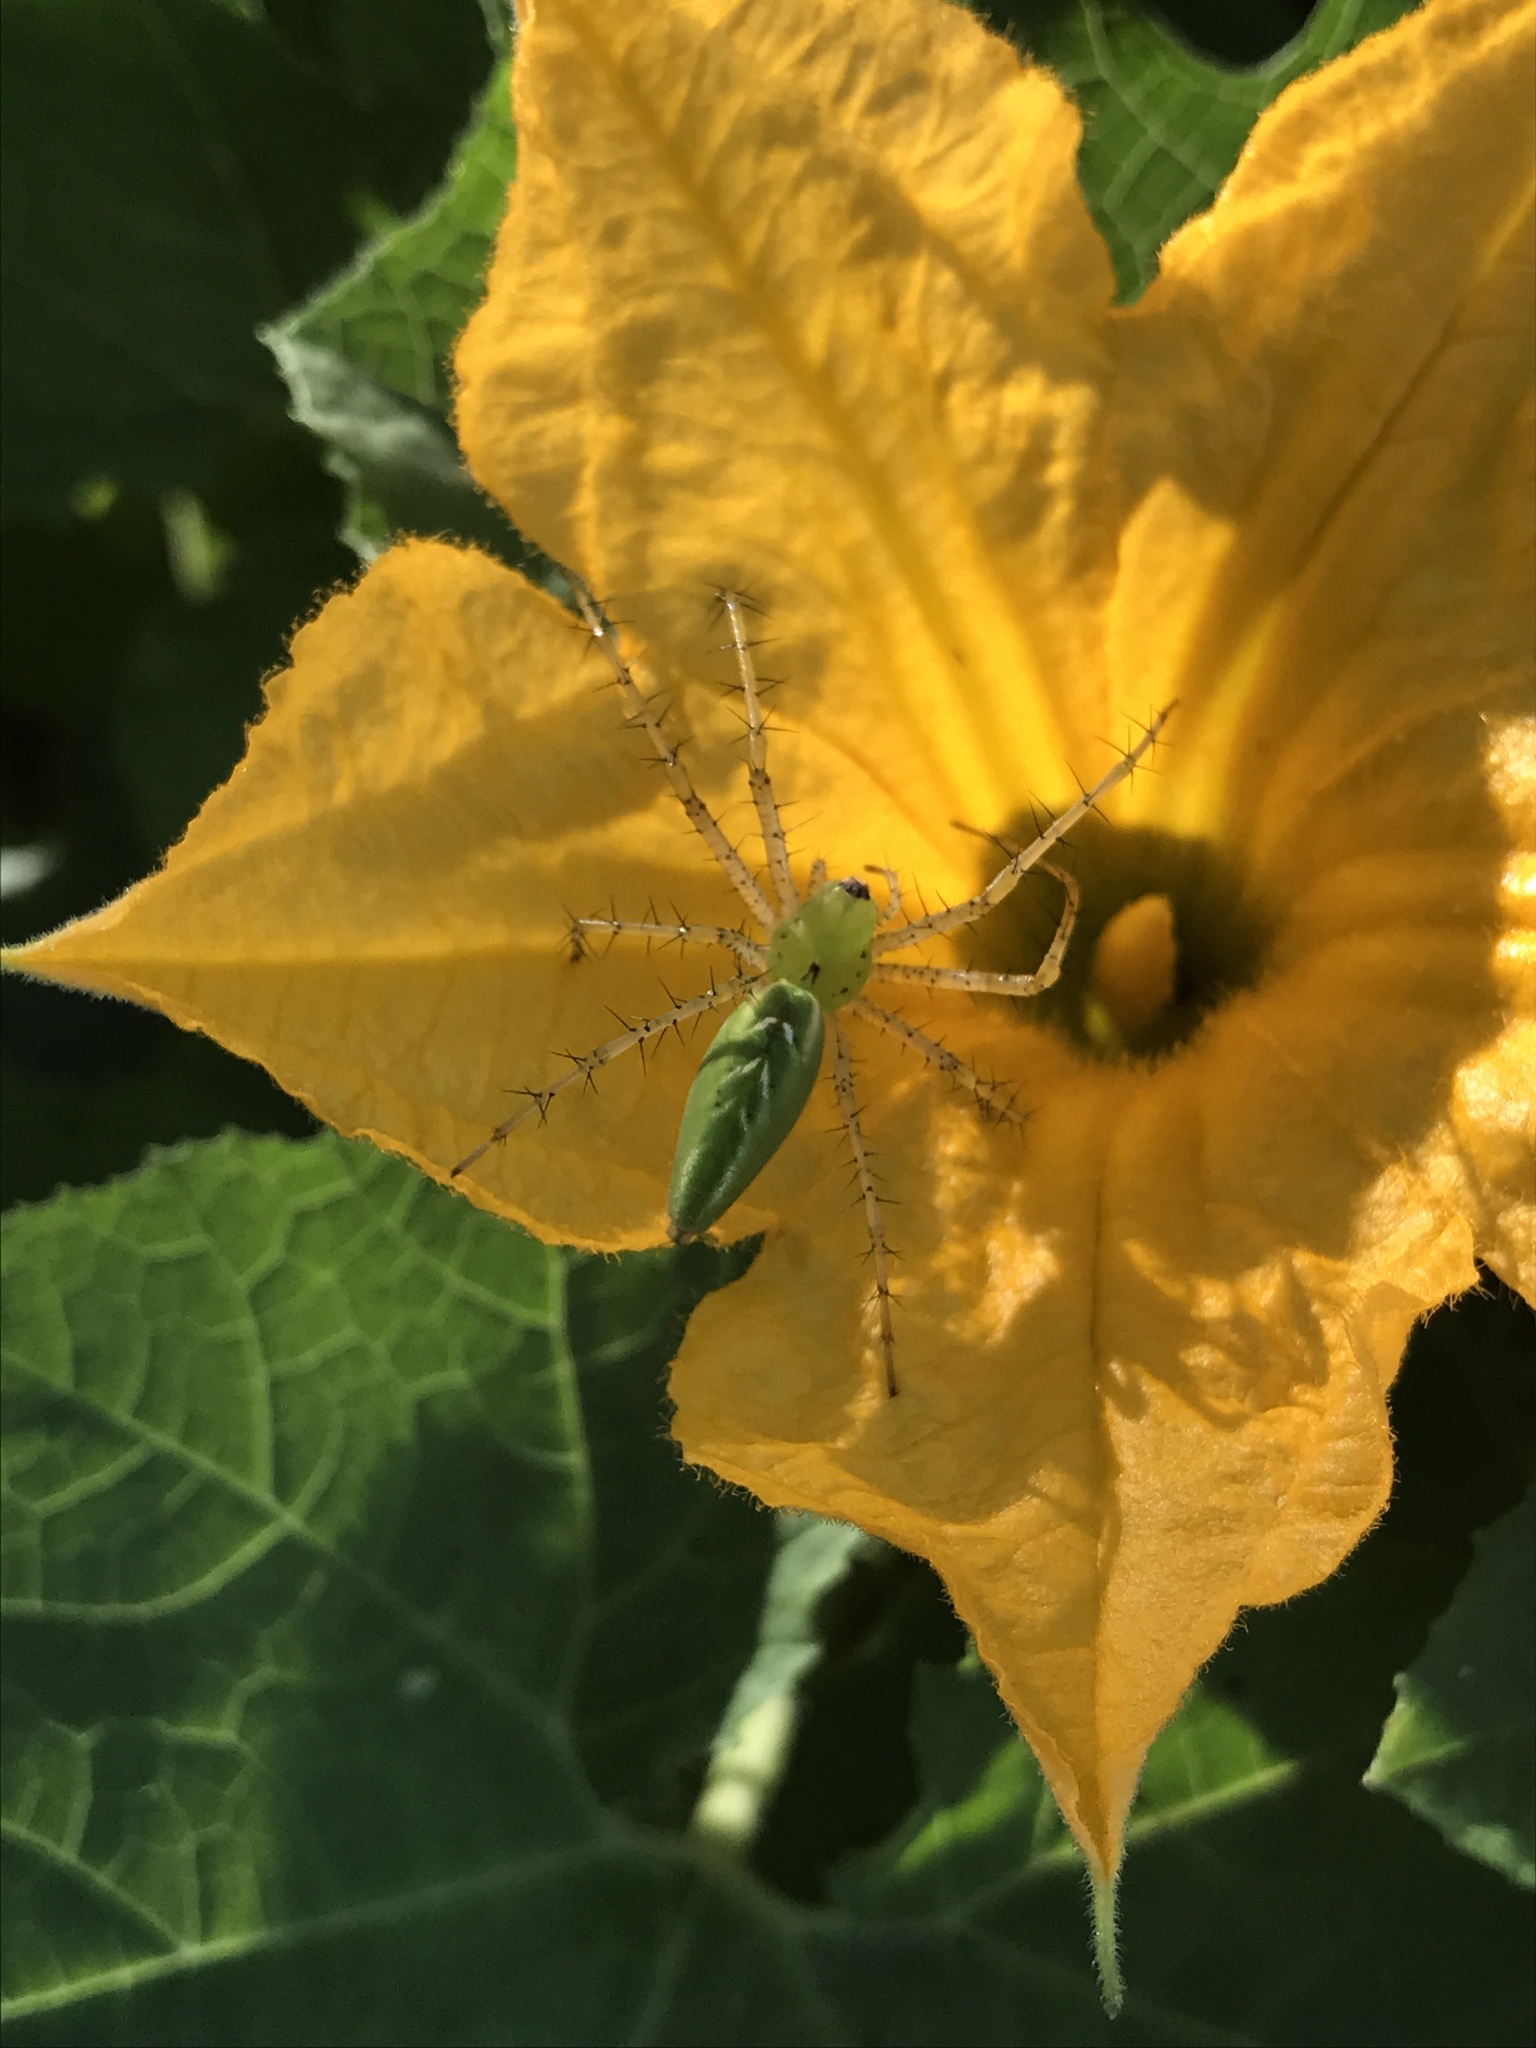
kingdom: Animalia
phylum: Arthropoda
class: Arachnida
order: Araneae
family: Oxyopidae
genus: Peucetia
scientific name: Peucetia viridans
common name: Lynx spiders
